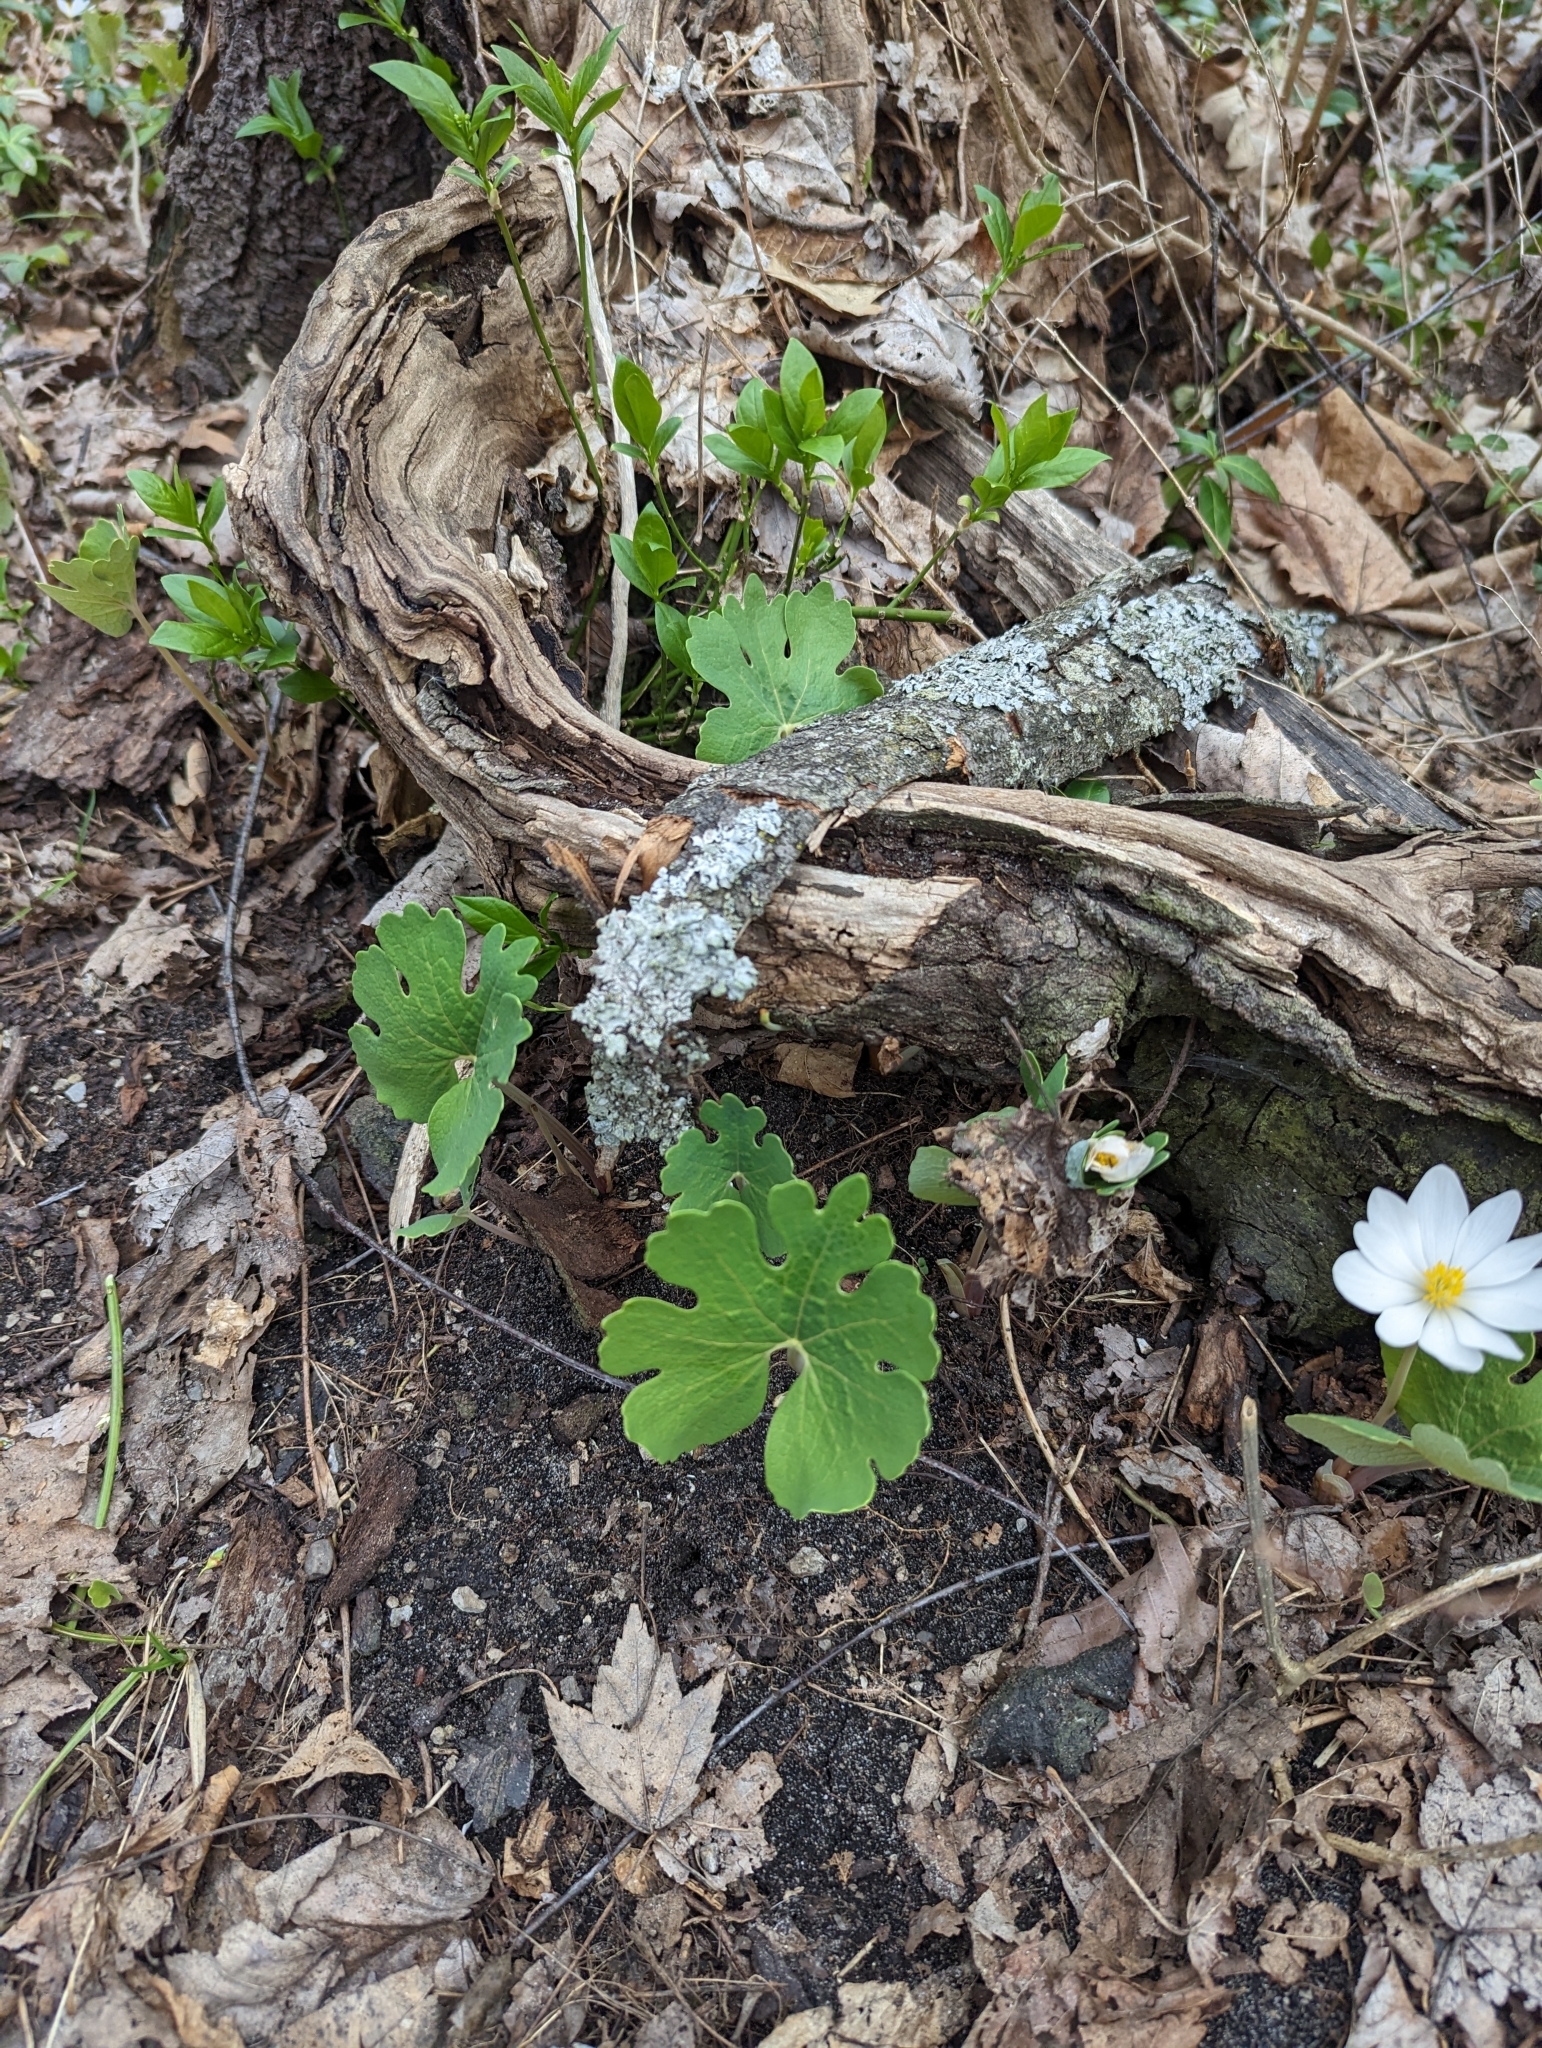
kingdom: Plantae
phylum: Tracheophyta
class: Magnoliopsida
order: Ranunculales
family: Papaveraceae
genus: Sanguinaria
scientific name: Sanguinaria canadensis
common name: Bloodroot
